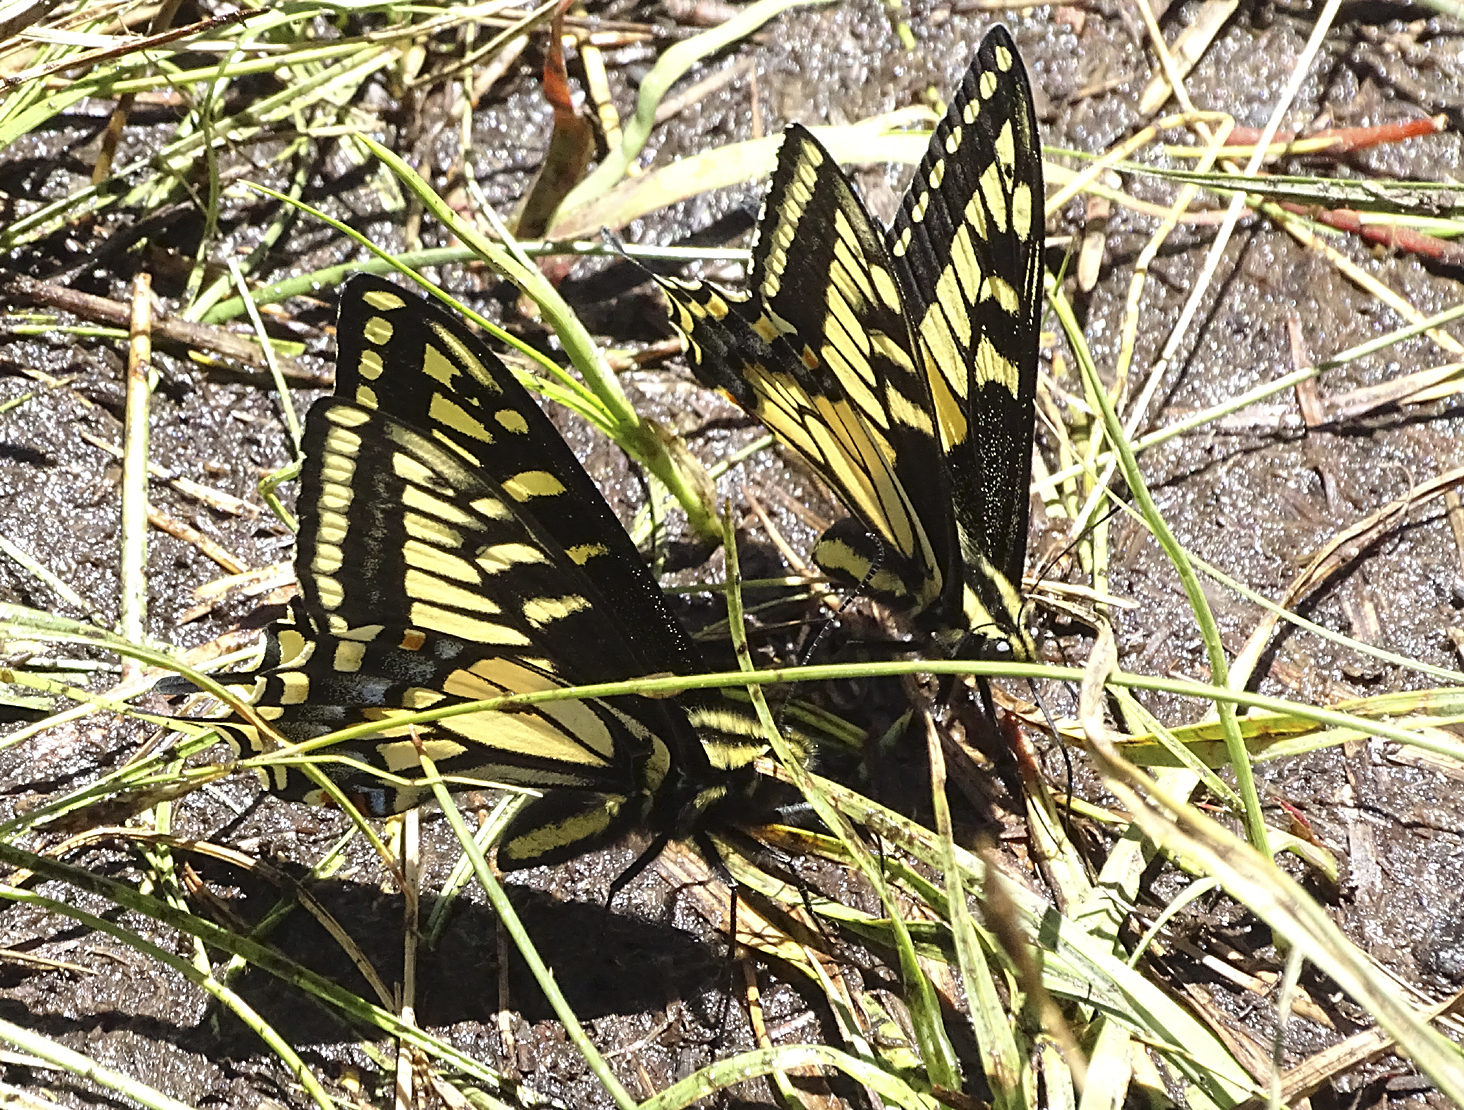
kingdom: Animalia
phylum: Arthropoda
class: Insecta
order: Lepidoptera
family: Papilionidae
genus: Papilio
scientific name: Papilio zelicaon
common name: Anise swallowtail
